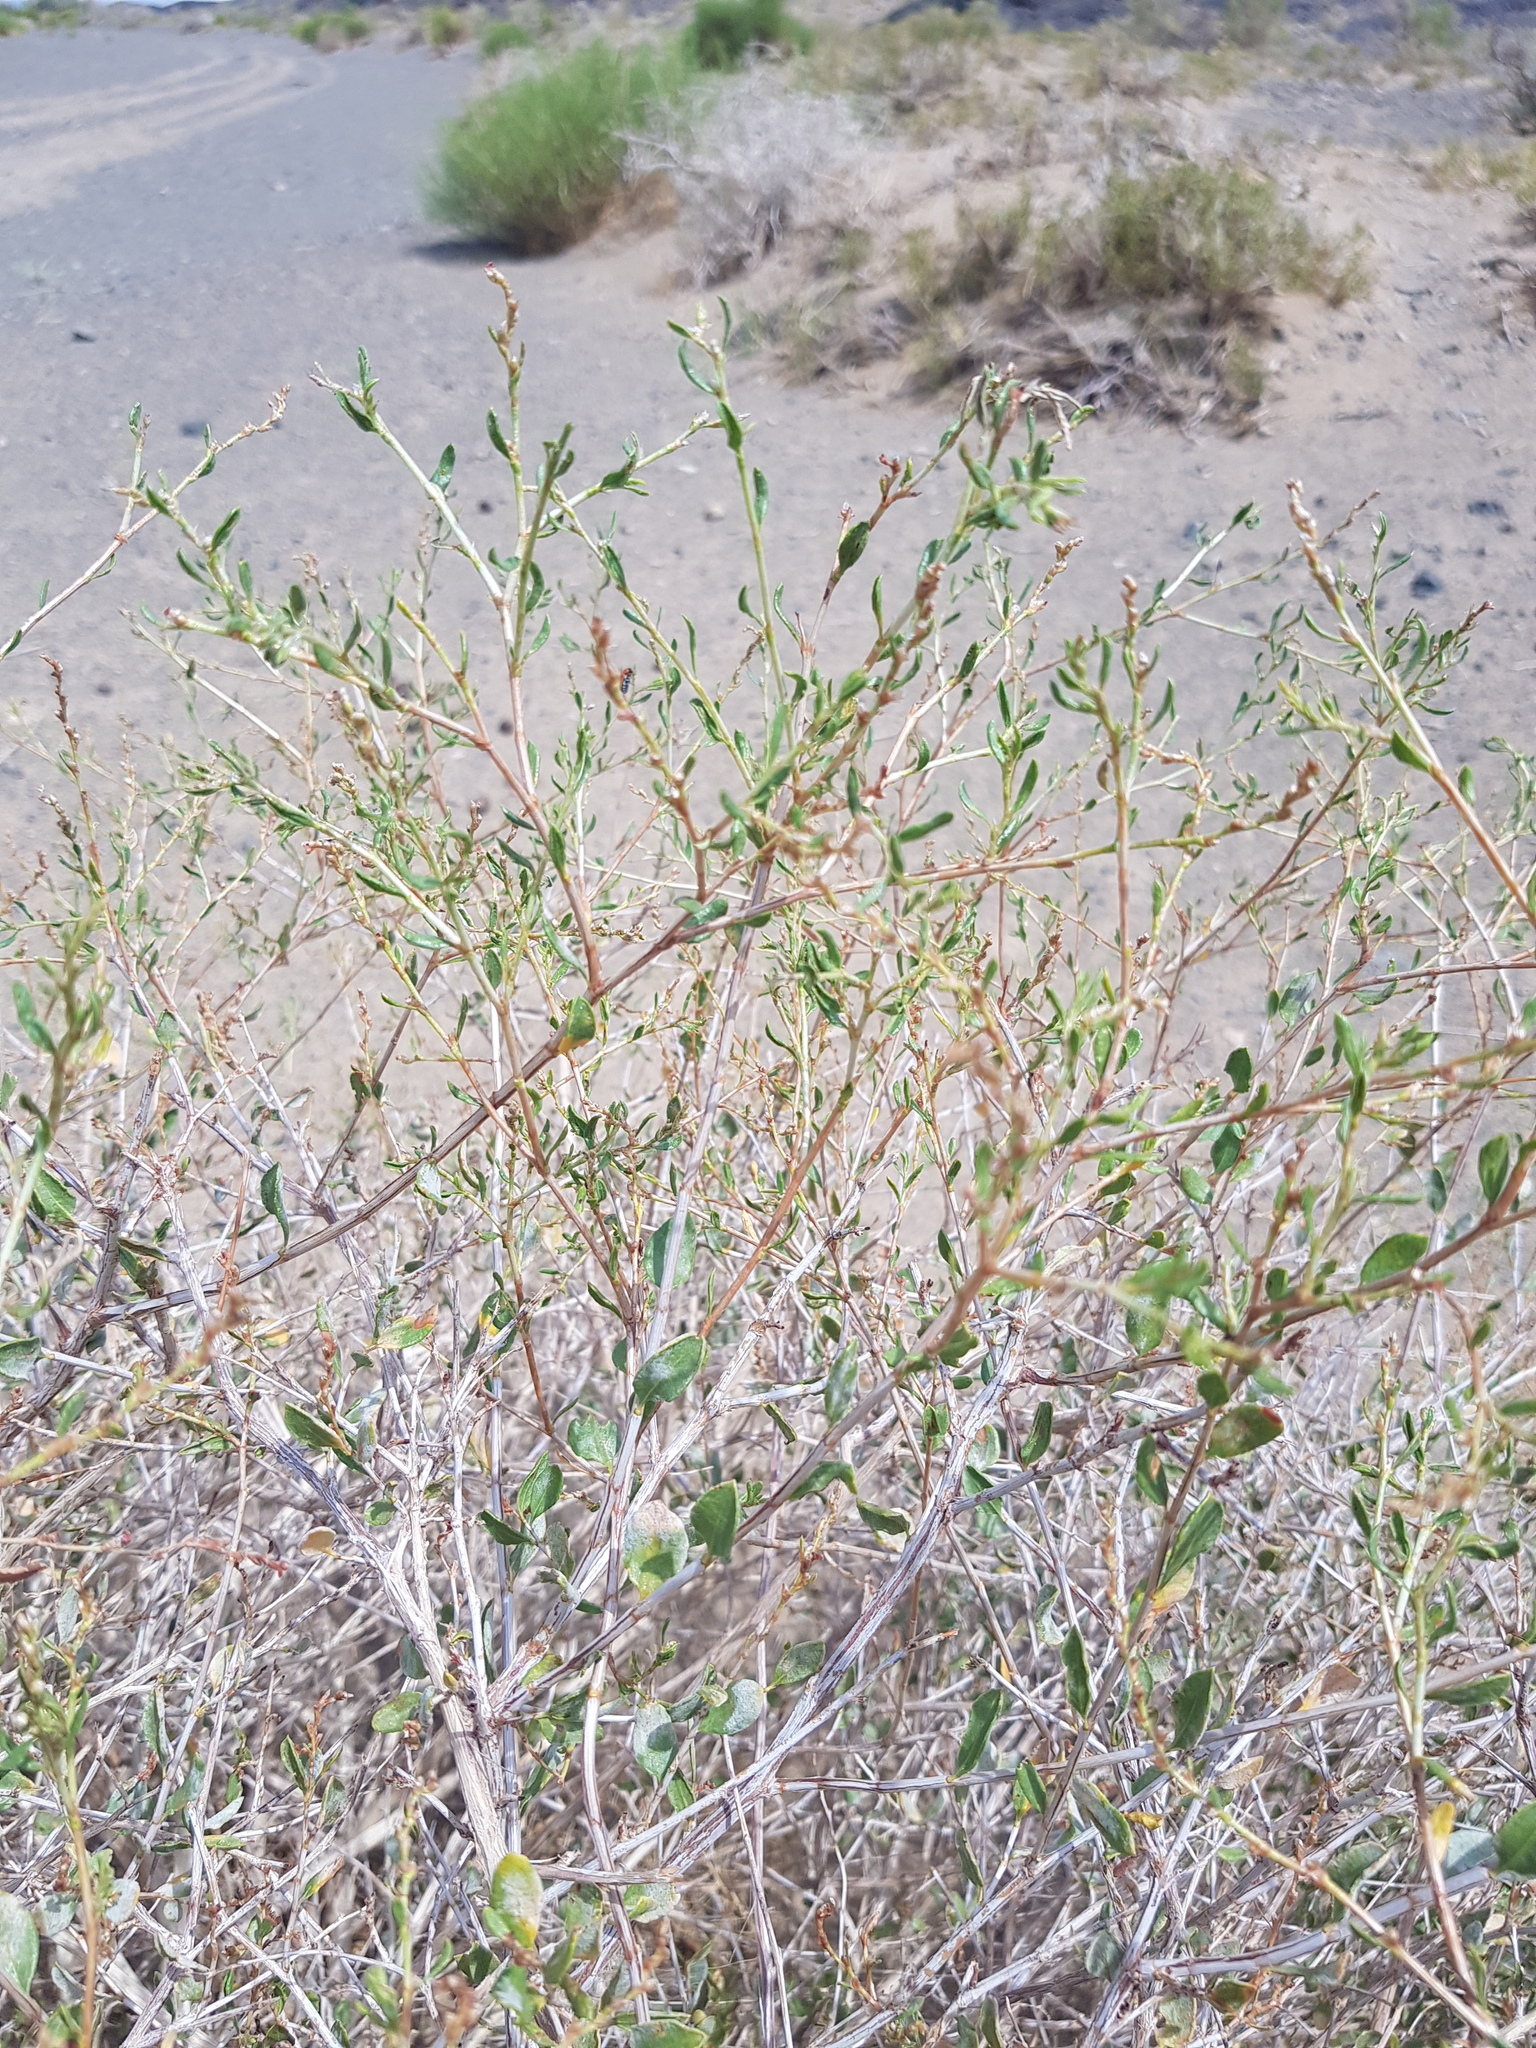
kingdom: Plantae
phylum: Tracheophyta
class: Magnoliopsida
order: Caryophyllales
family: Polygonaceae
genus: Atraphaxis
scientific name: Atraphaxis frutescens
